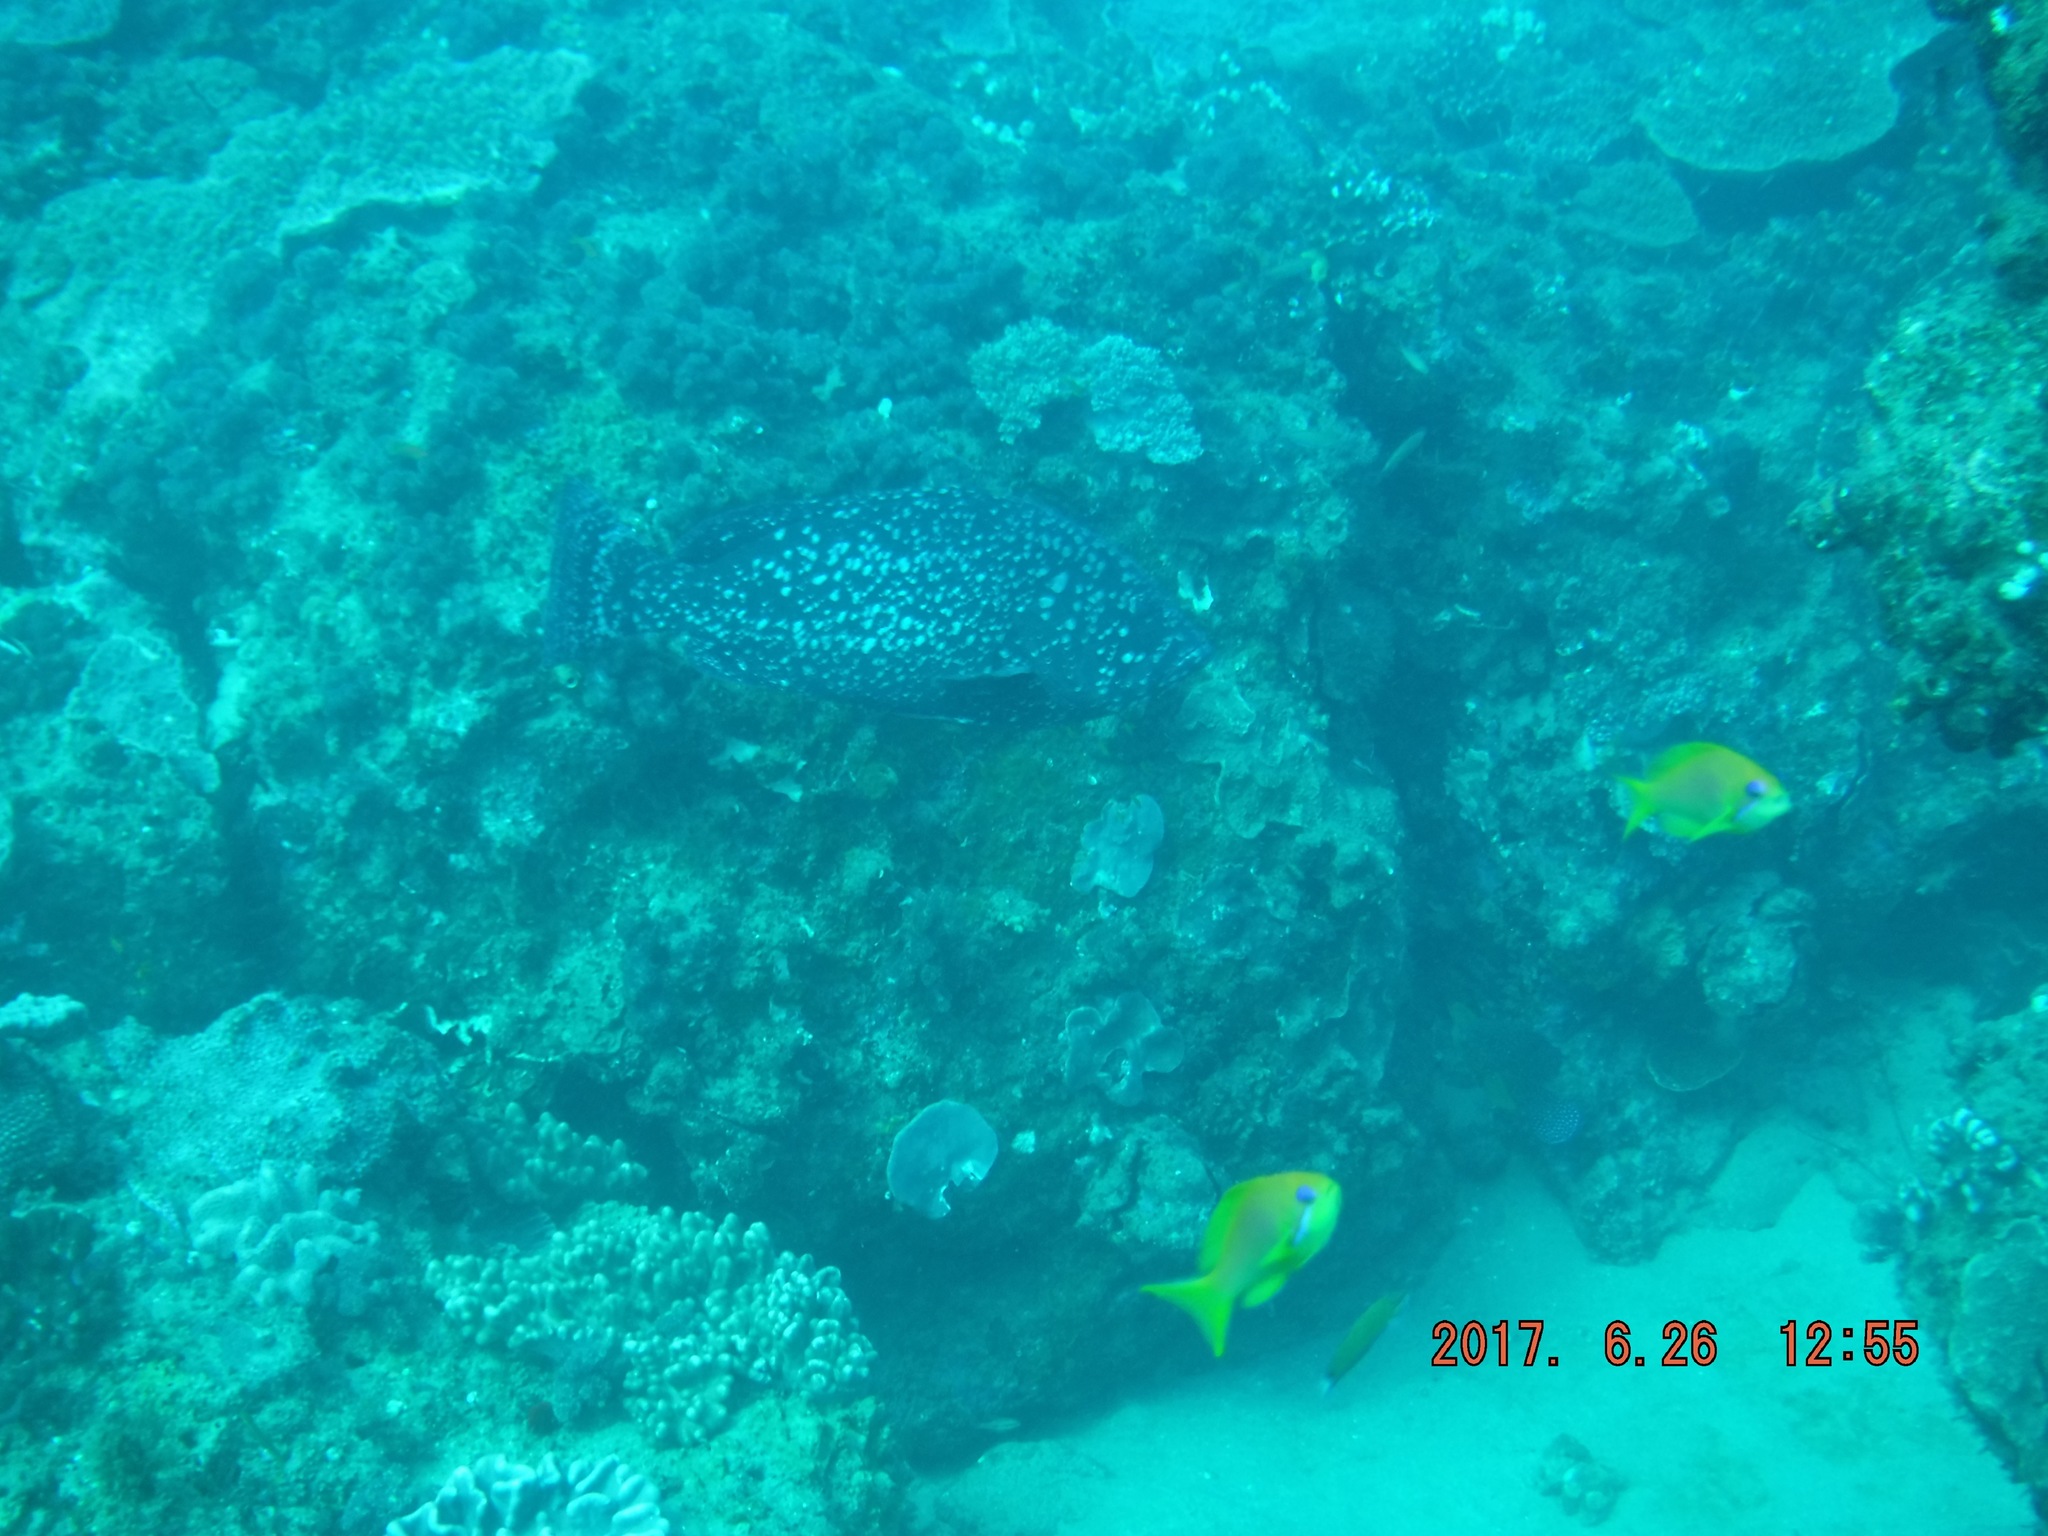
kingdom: Animalia
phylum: Chordata
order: Perciformes
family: Serranidae
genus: Epinephelus
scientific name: Epinephelus multinotatus
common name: Rankin's cod
